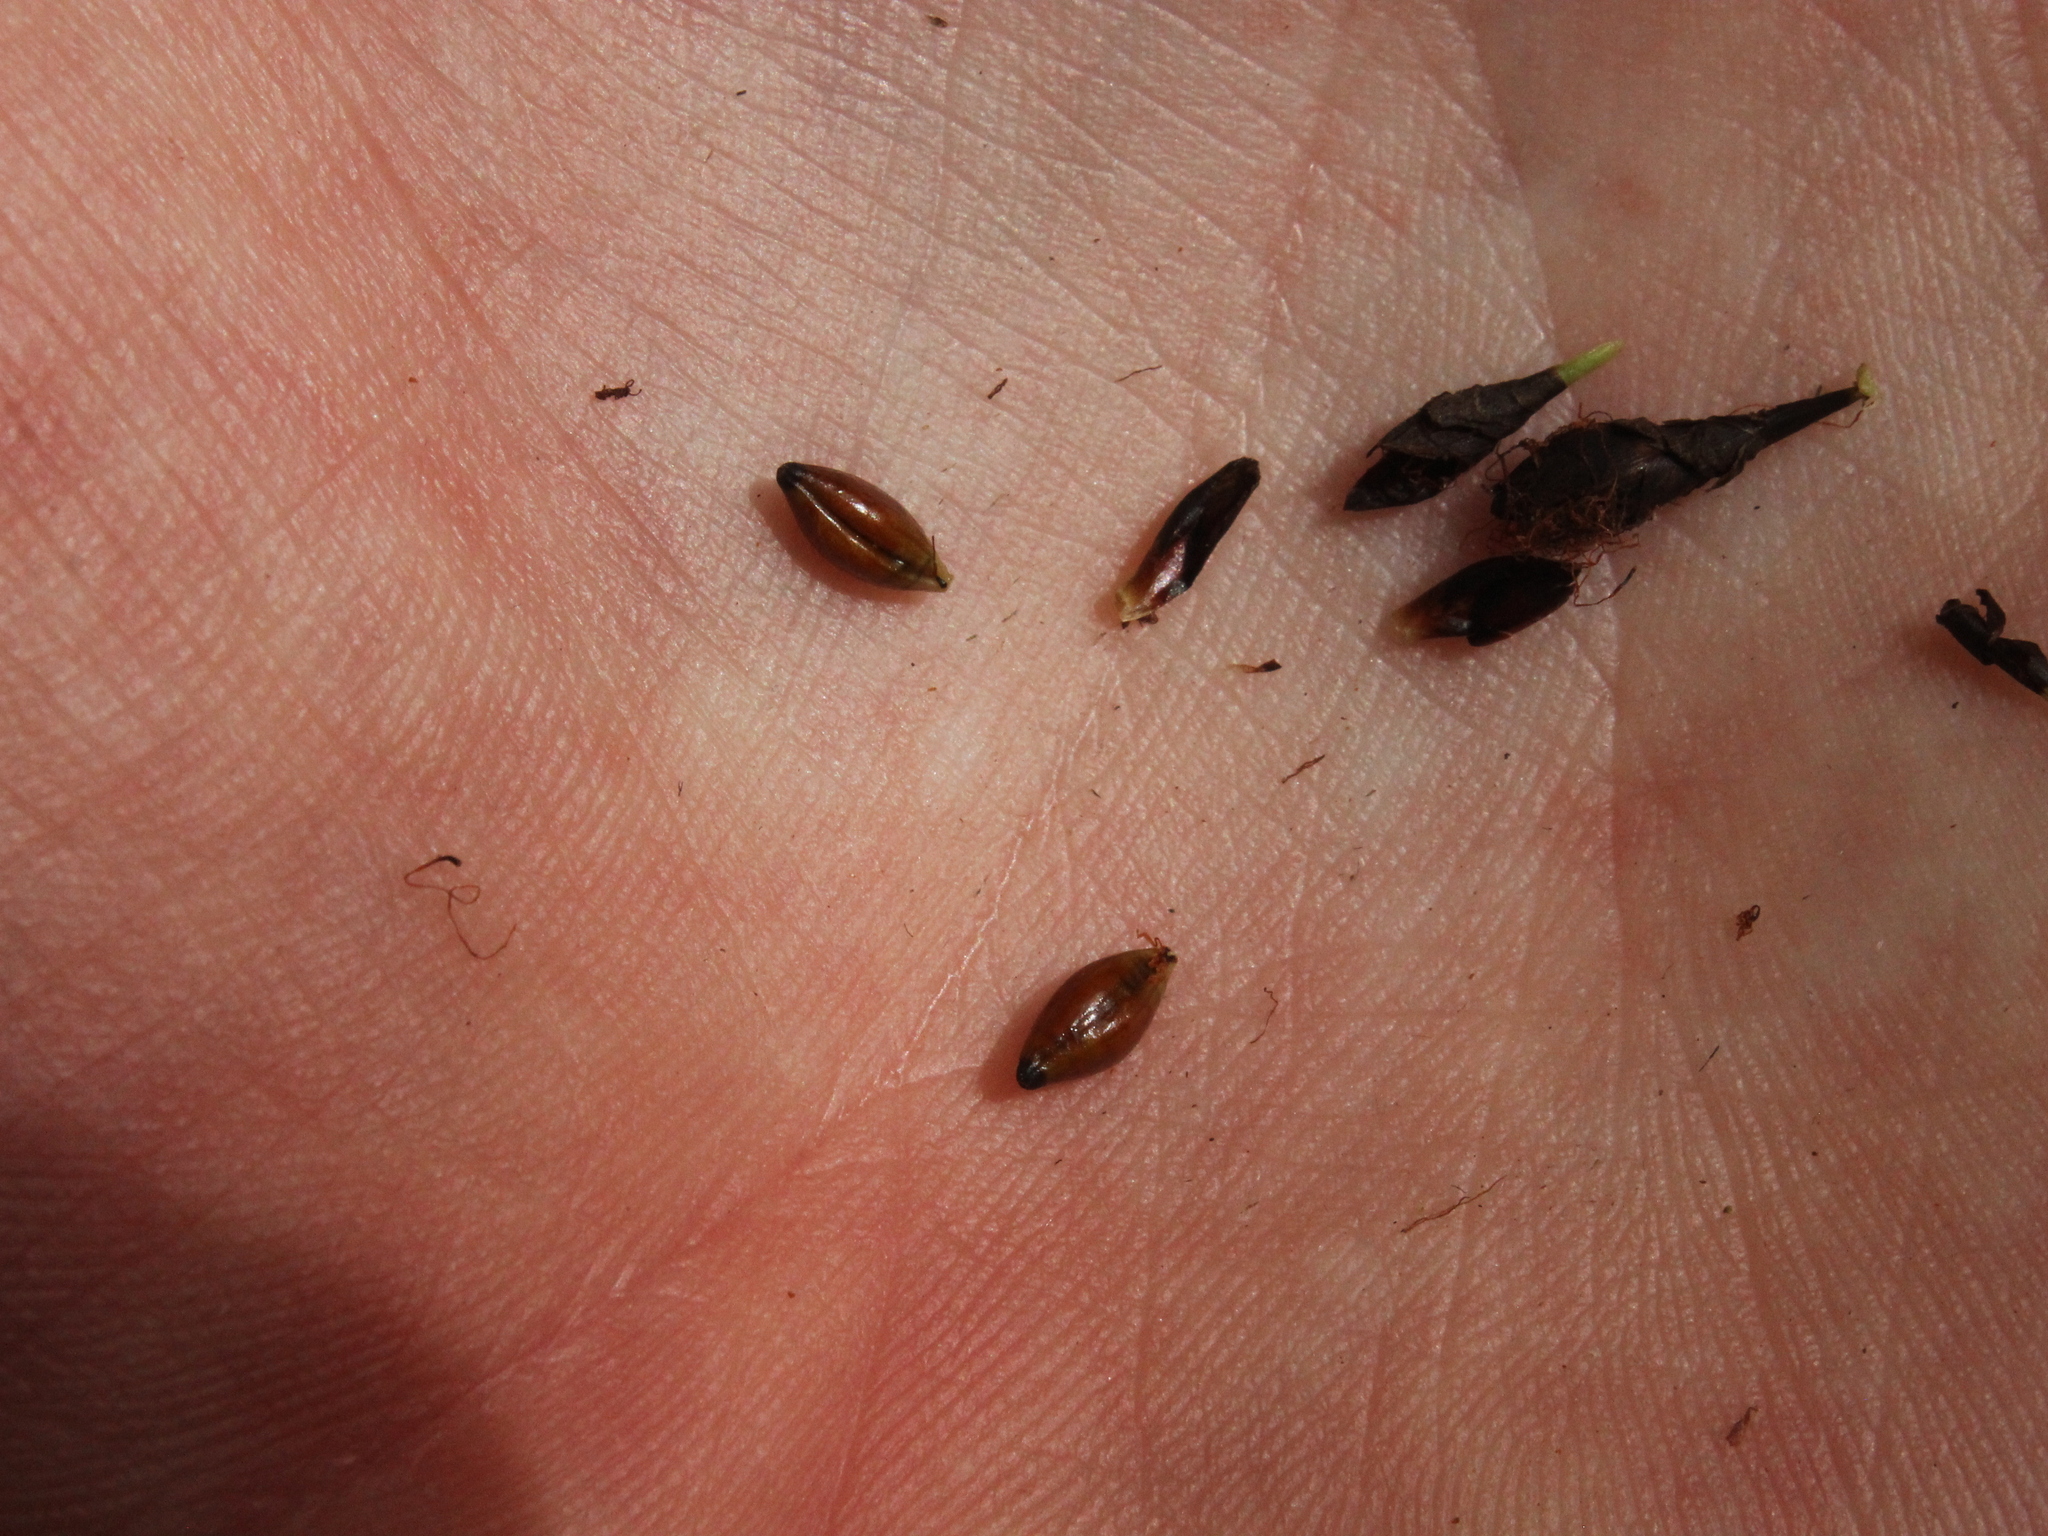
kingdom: Plantae
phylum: Tracheophyta
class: Liliopsida
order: Poales
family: Cyperaceae
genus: Gahnia
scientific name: Gahnia pauciflora
